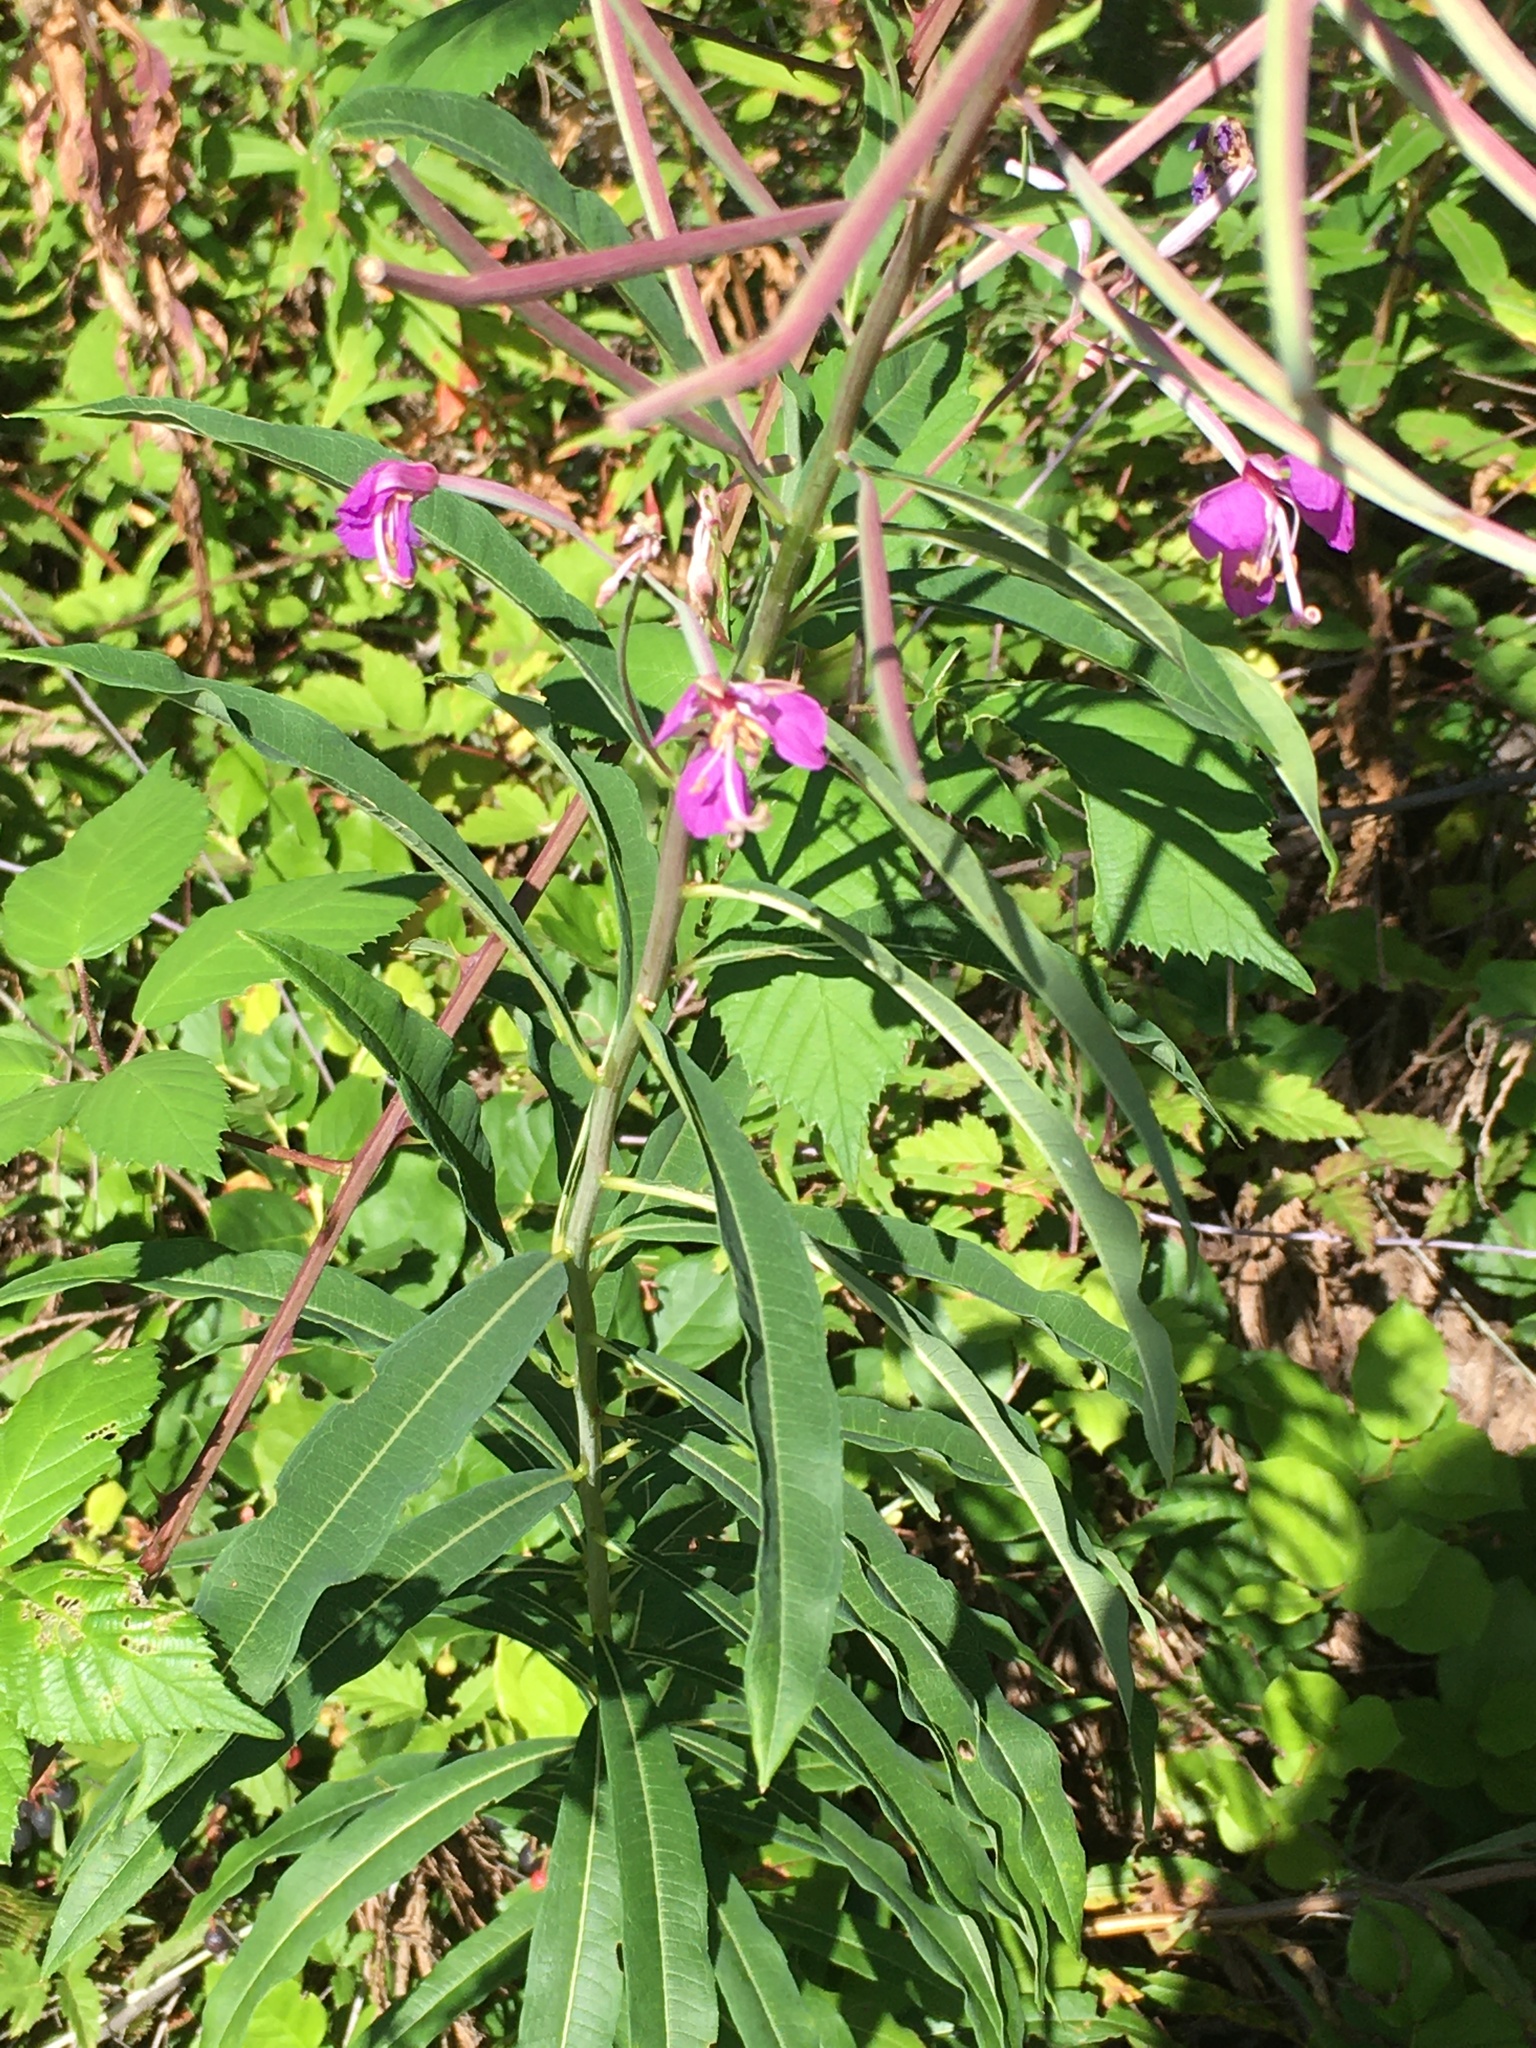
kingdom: Plantae
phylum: Tracheophyta
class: Magnoliopsida
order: Myrtales
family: Onagraceae
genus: Chamaenerion
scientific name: Chamaenerion angustifolium
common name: Fireweed
